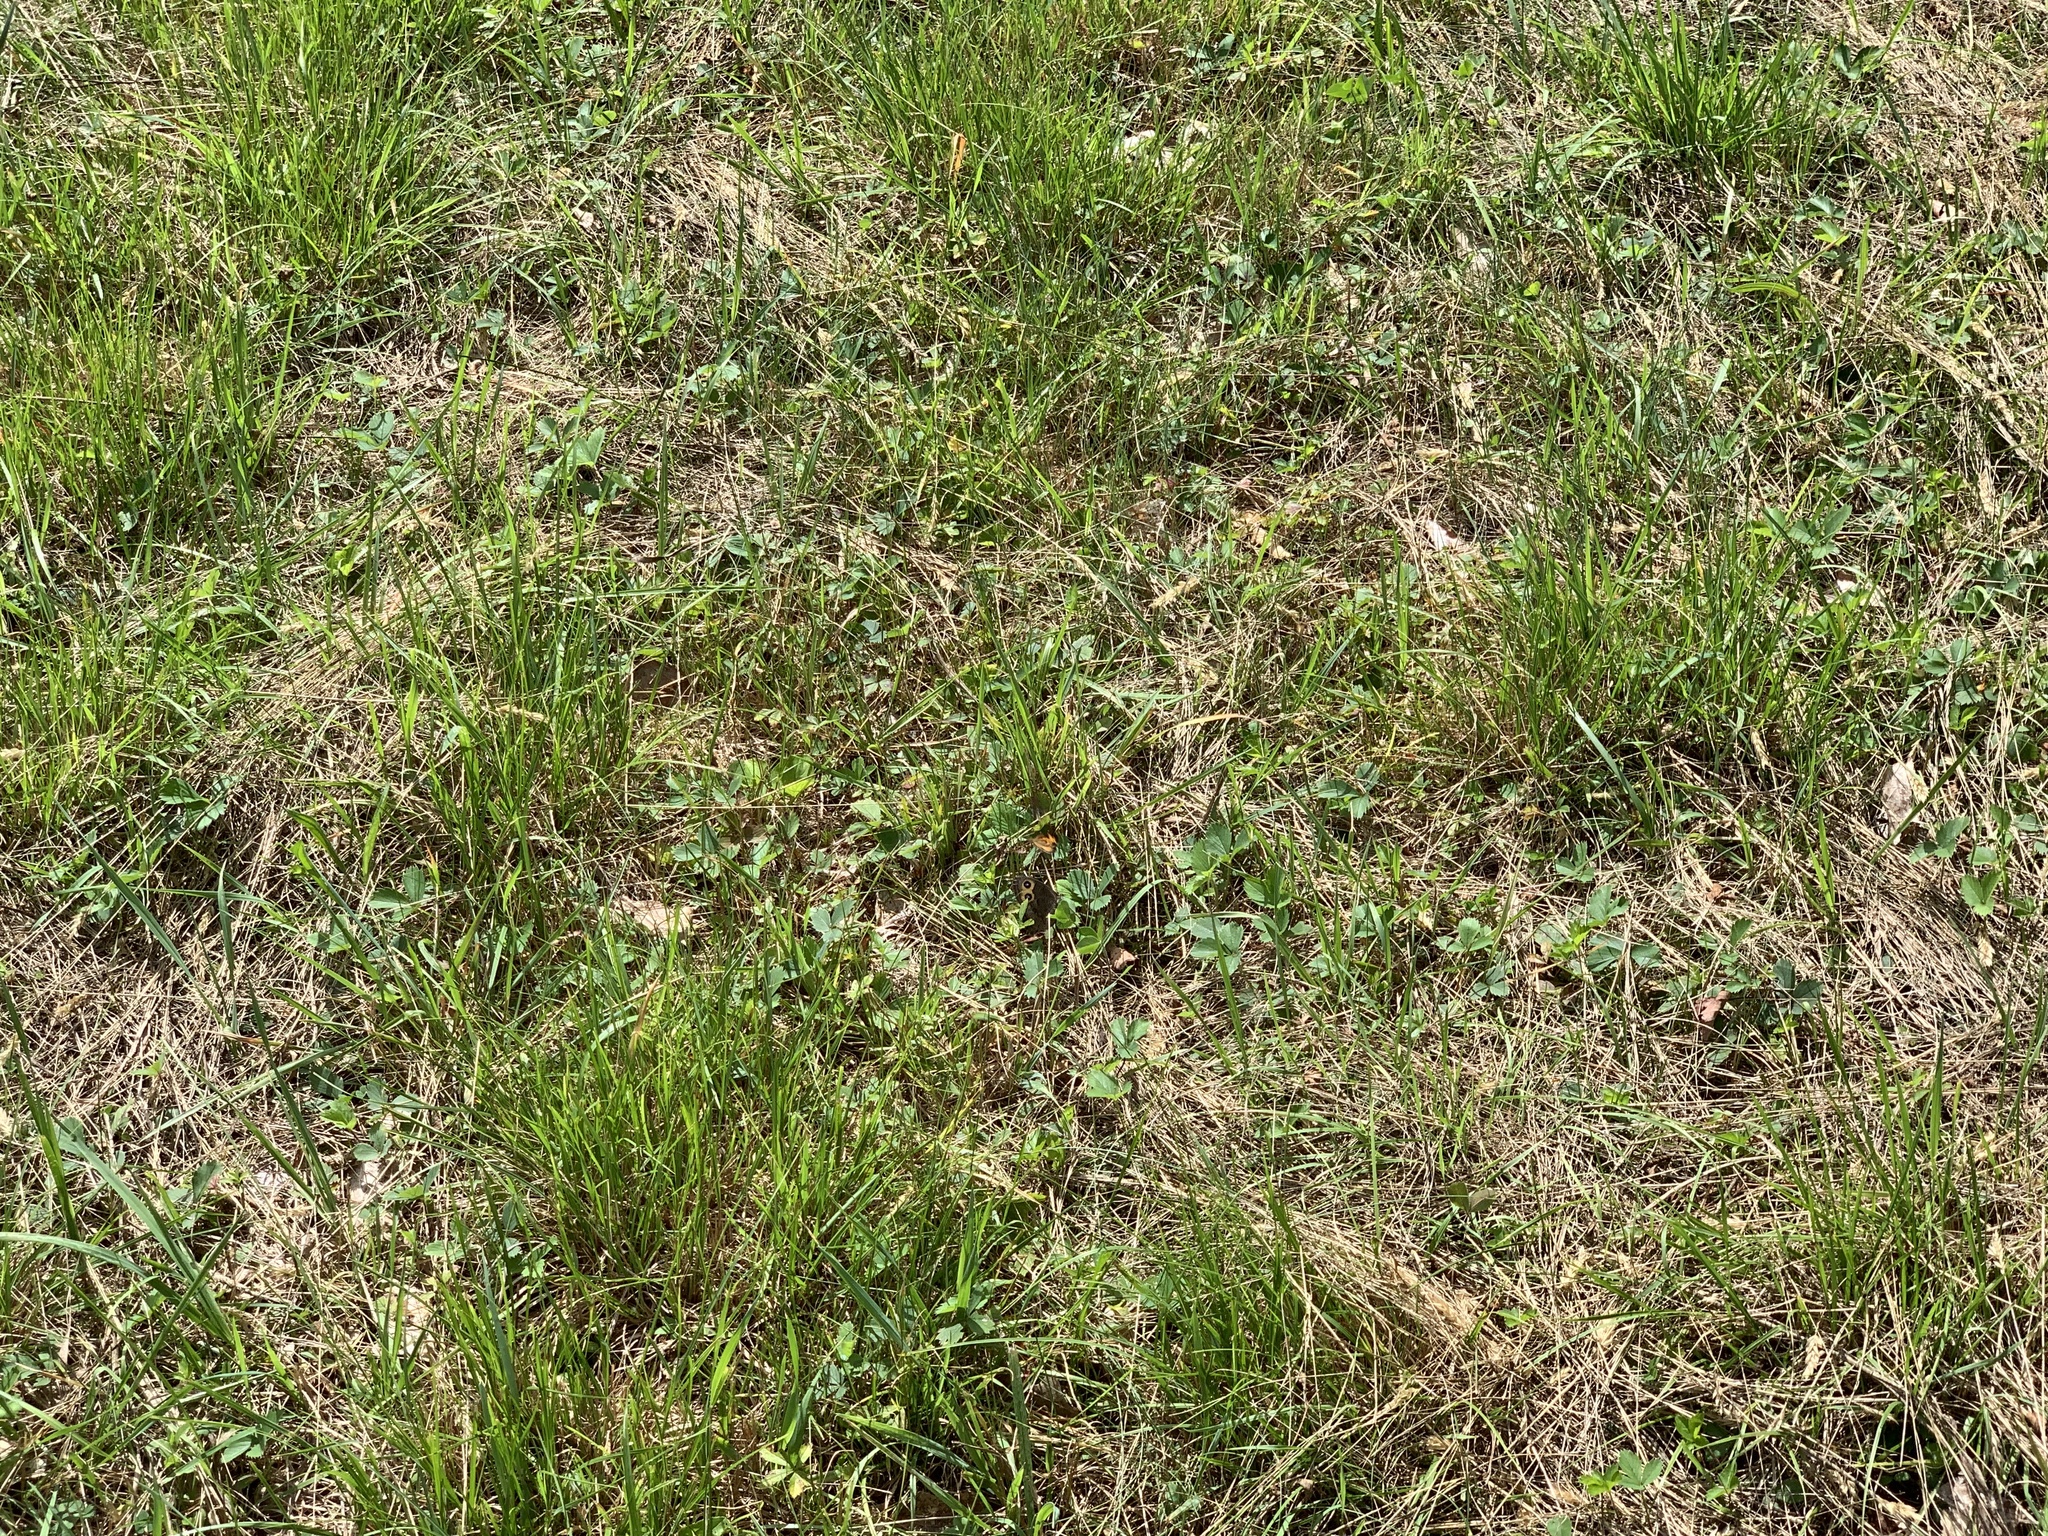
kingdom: Animalia
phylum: Arthropoda
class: Insecta
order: Lepidoptera
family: Nymphalidae
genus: Cercyonis
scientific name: Cercyonis pegala
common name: Common wood-nymph
